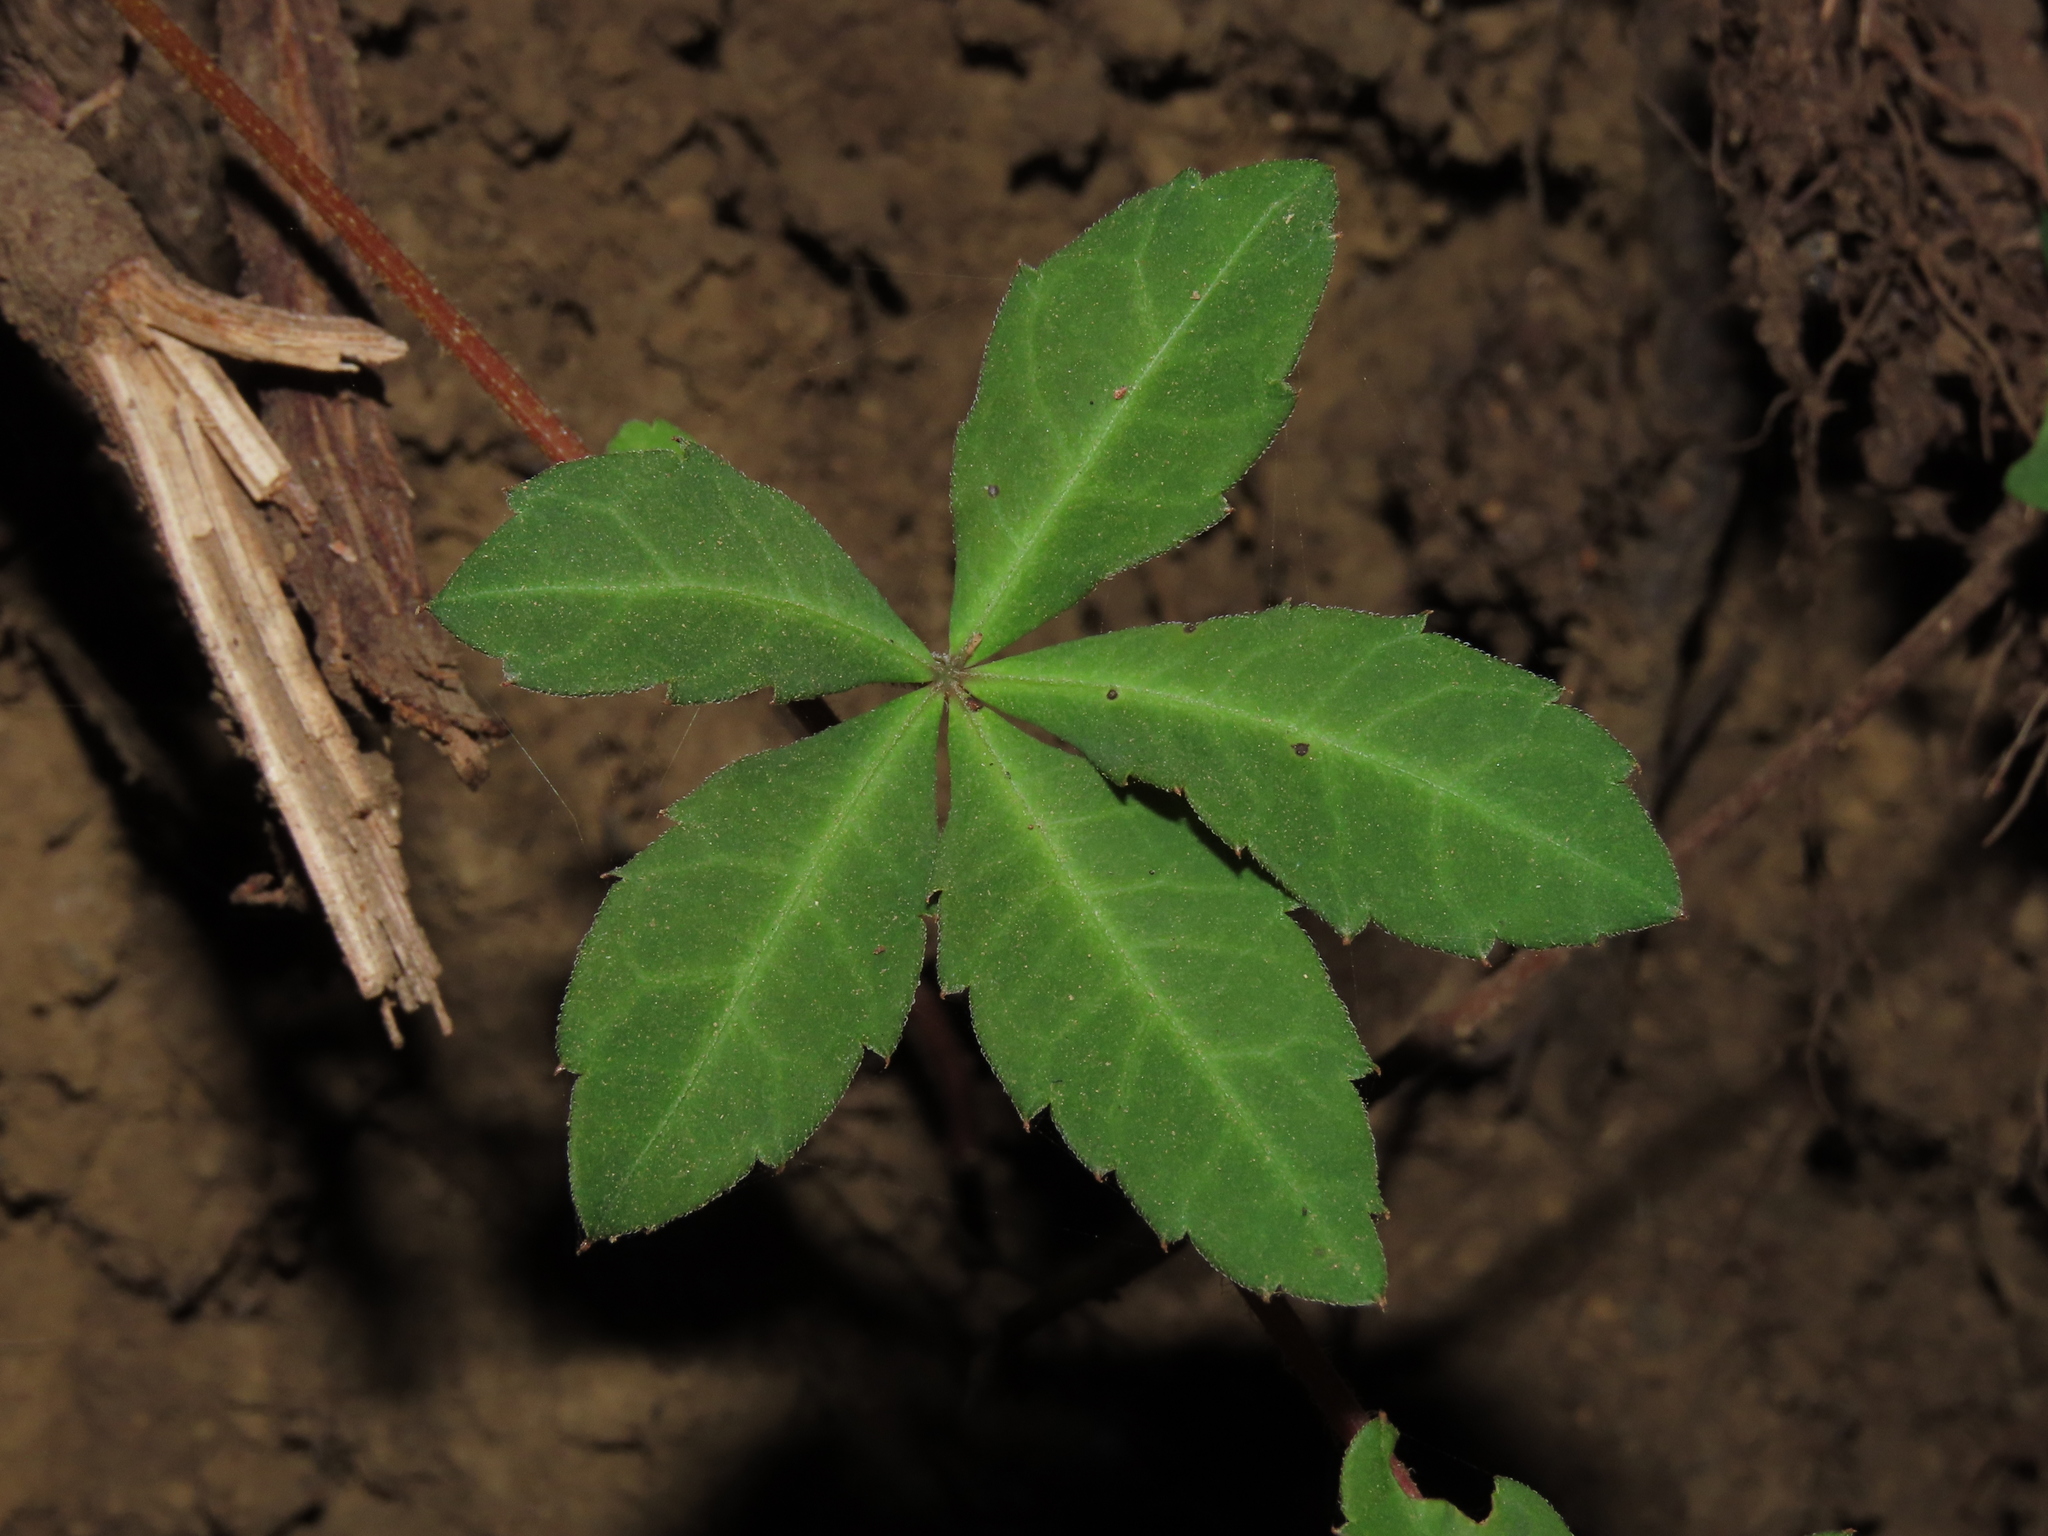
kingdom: Plantae
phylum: Tracheophyta
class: Magnoliopsida
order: Vitales
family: Vitaceae
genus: Clematicissus
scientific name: Clematicissus striata
